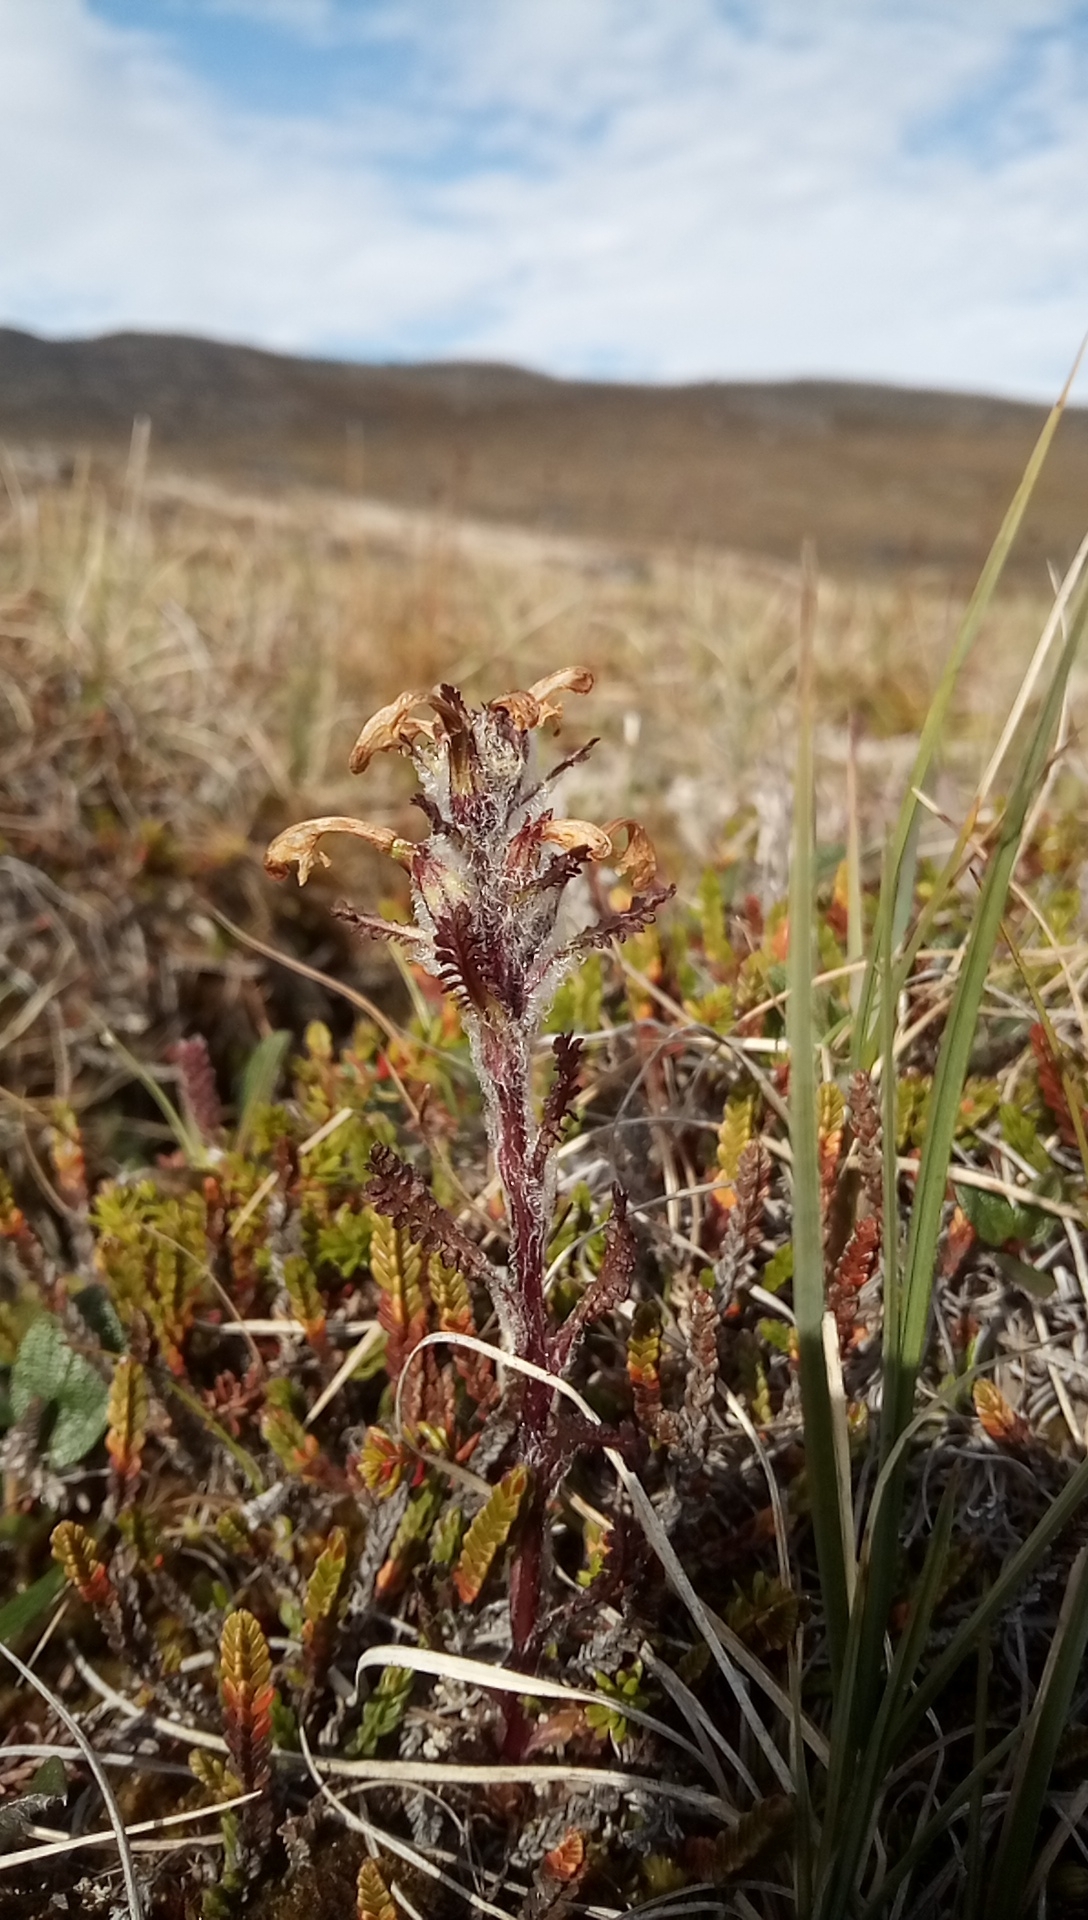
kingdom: Plantae
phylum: Tracheophyta
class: Magnoliopsida
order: Lamiales
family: Orobanchaceae
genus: Pedicularis
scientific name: Pedicularis hirsuta
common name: Hairy lousewort
